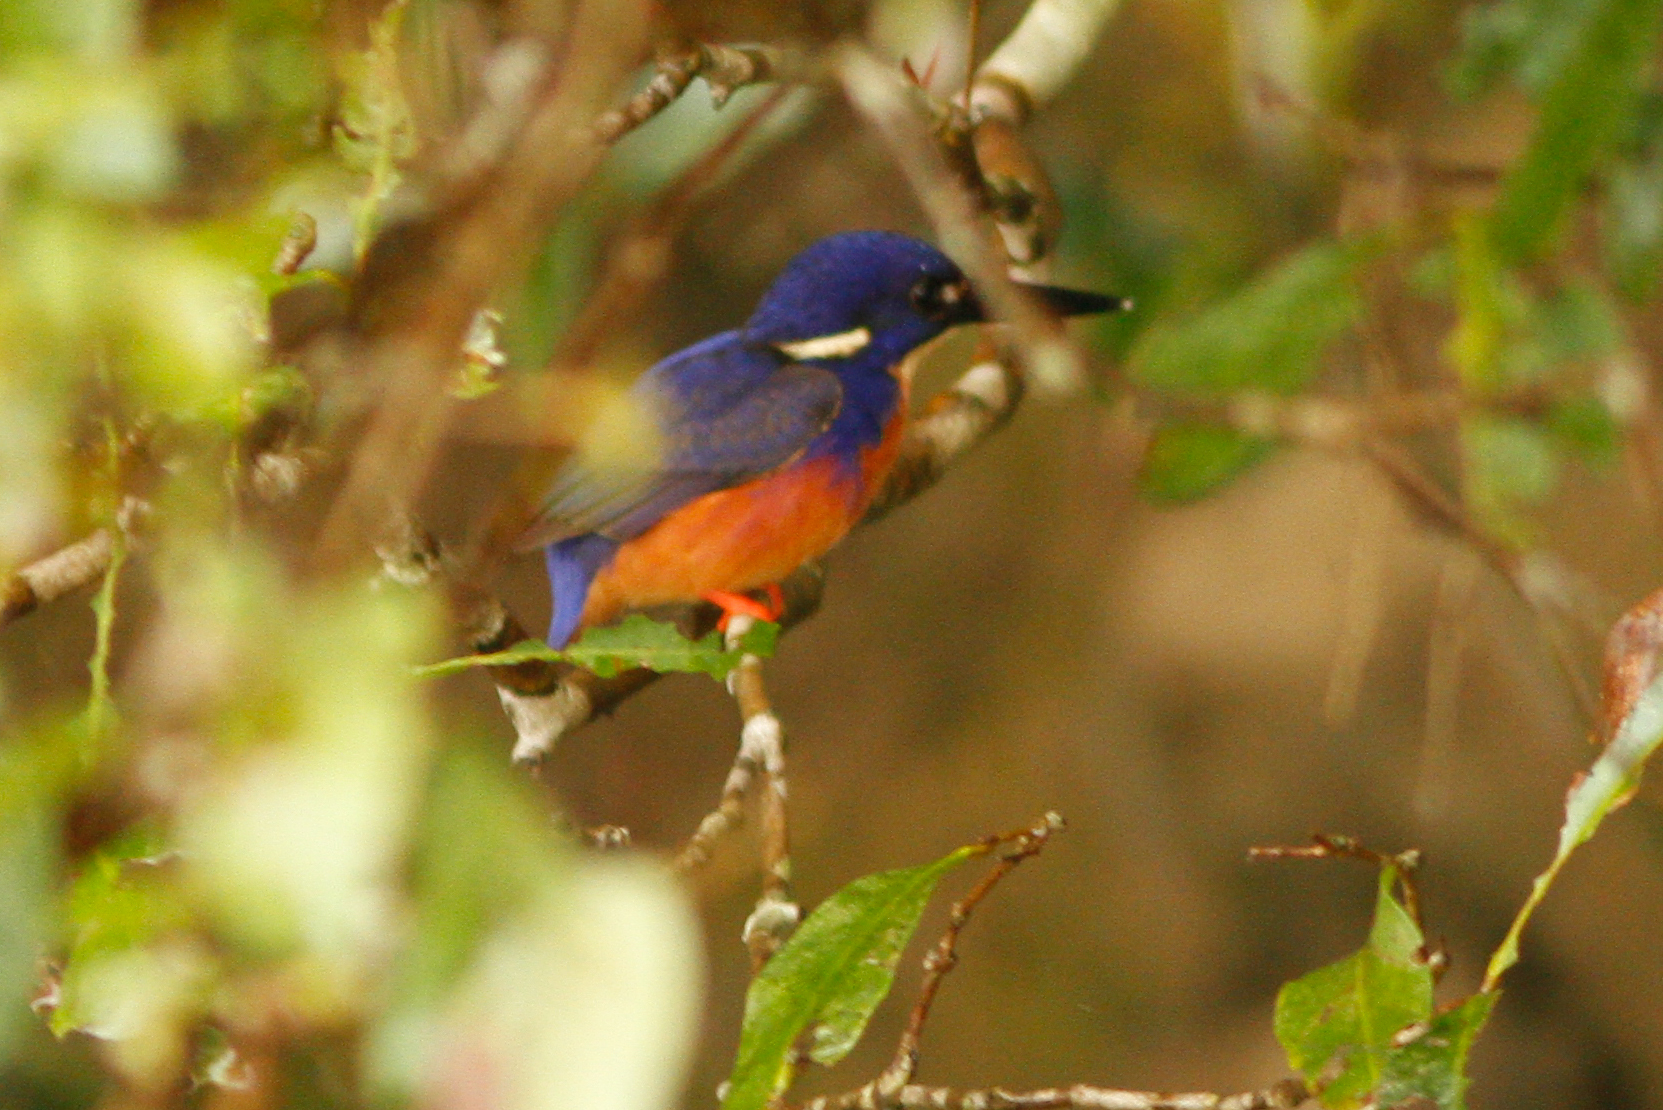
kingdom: Animalia
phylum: Chordata
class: Aves
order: Coraciiformes
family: Alcedinidae
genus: Ceyx
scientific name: Ceyx azureus
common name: Azure kingfisher
